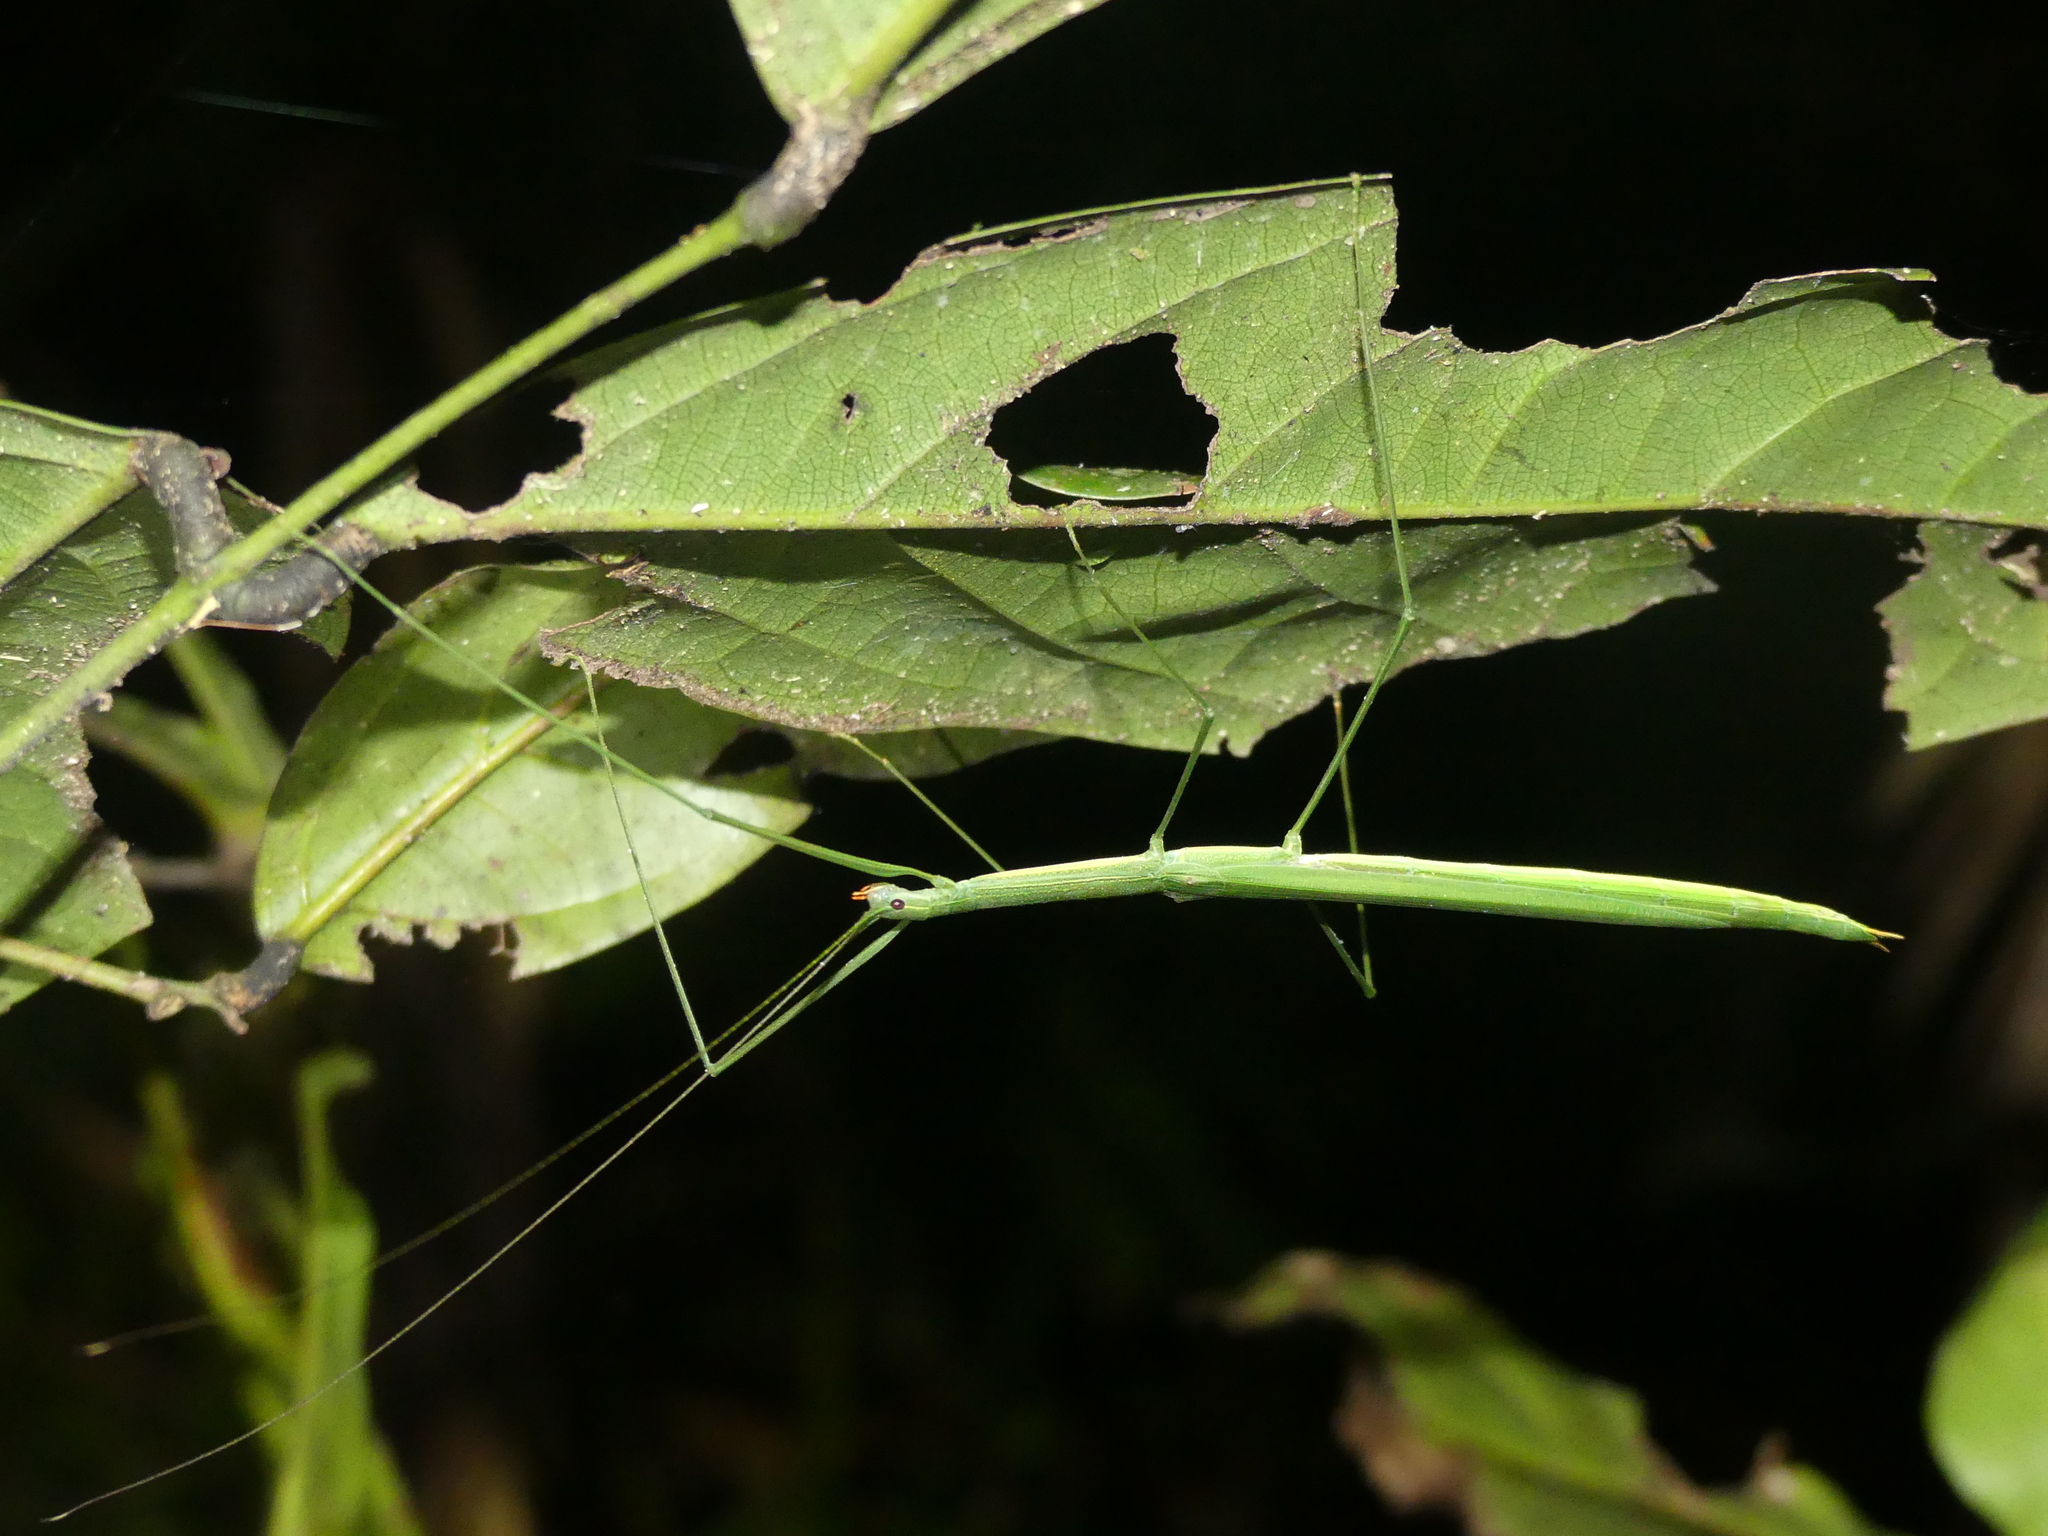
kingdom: Animalia
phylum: Arthropoda
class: Insecta
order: Phasmida
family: Lonchodidae
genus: Sipyloidea
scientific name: Sipyloidea rentzi
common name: Rentz's sipyloidea stick-insect
